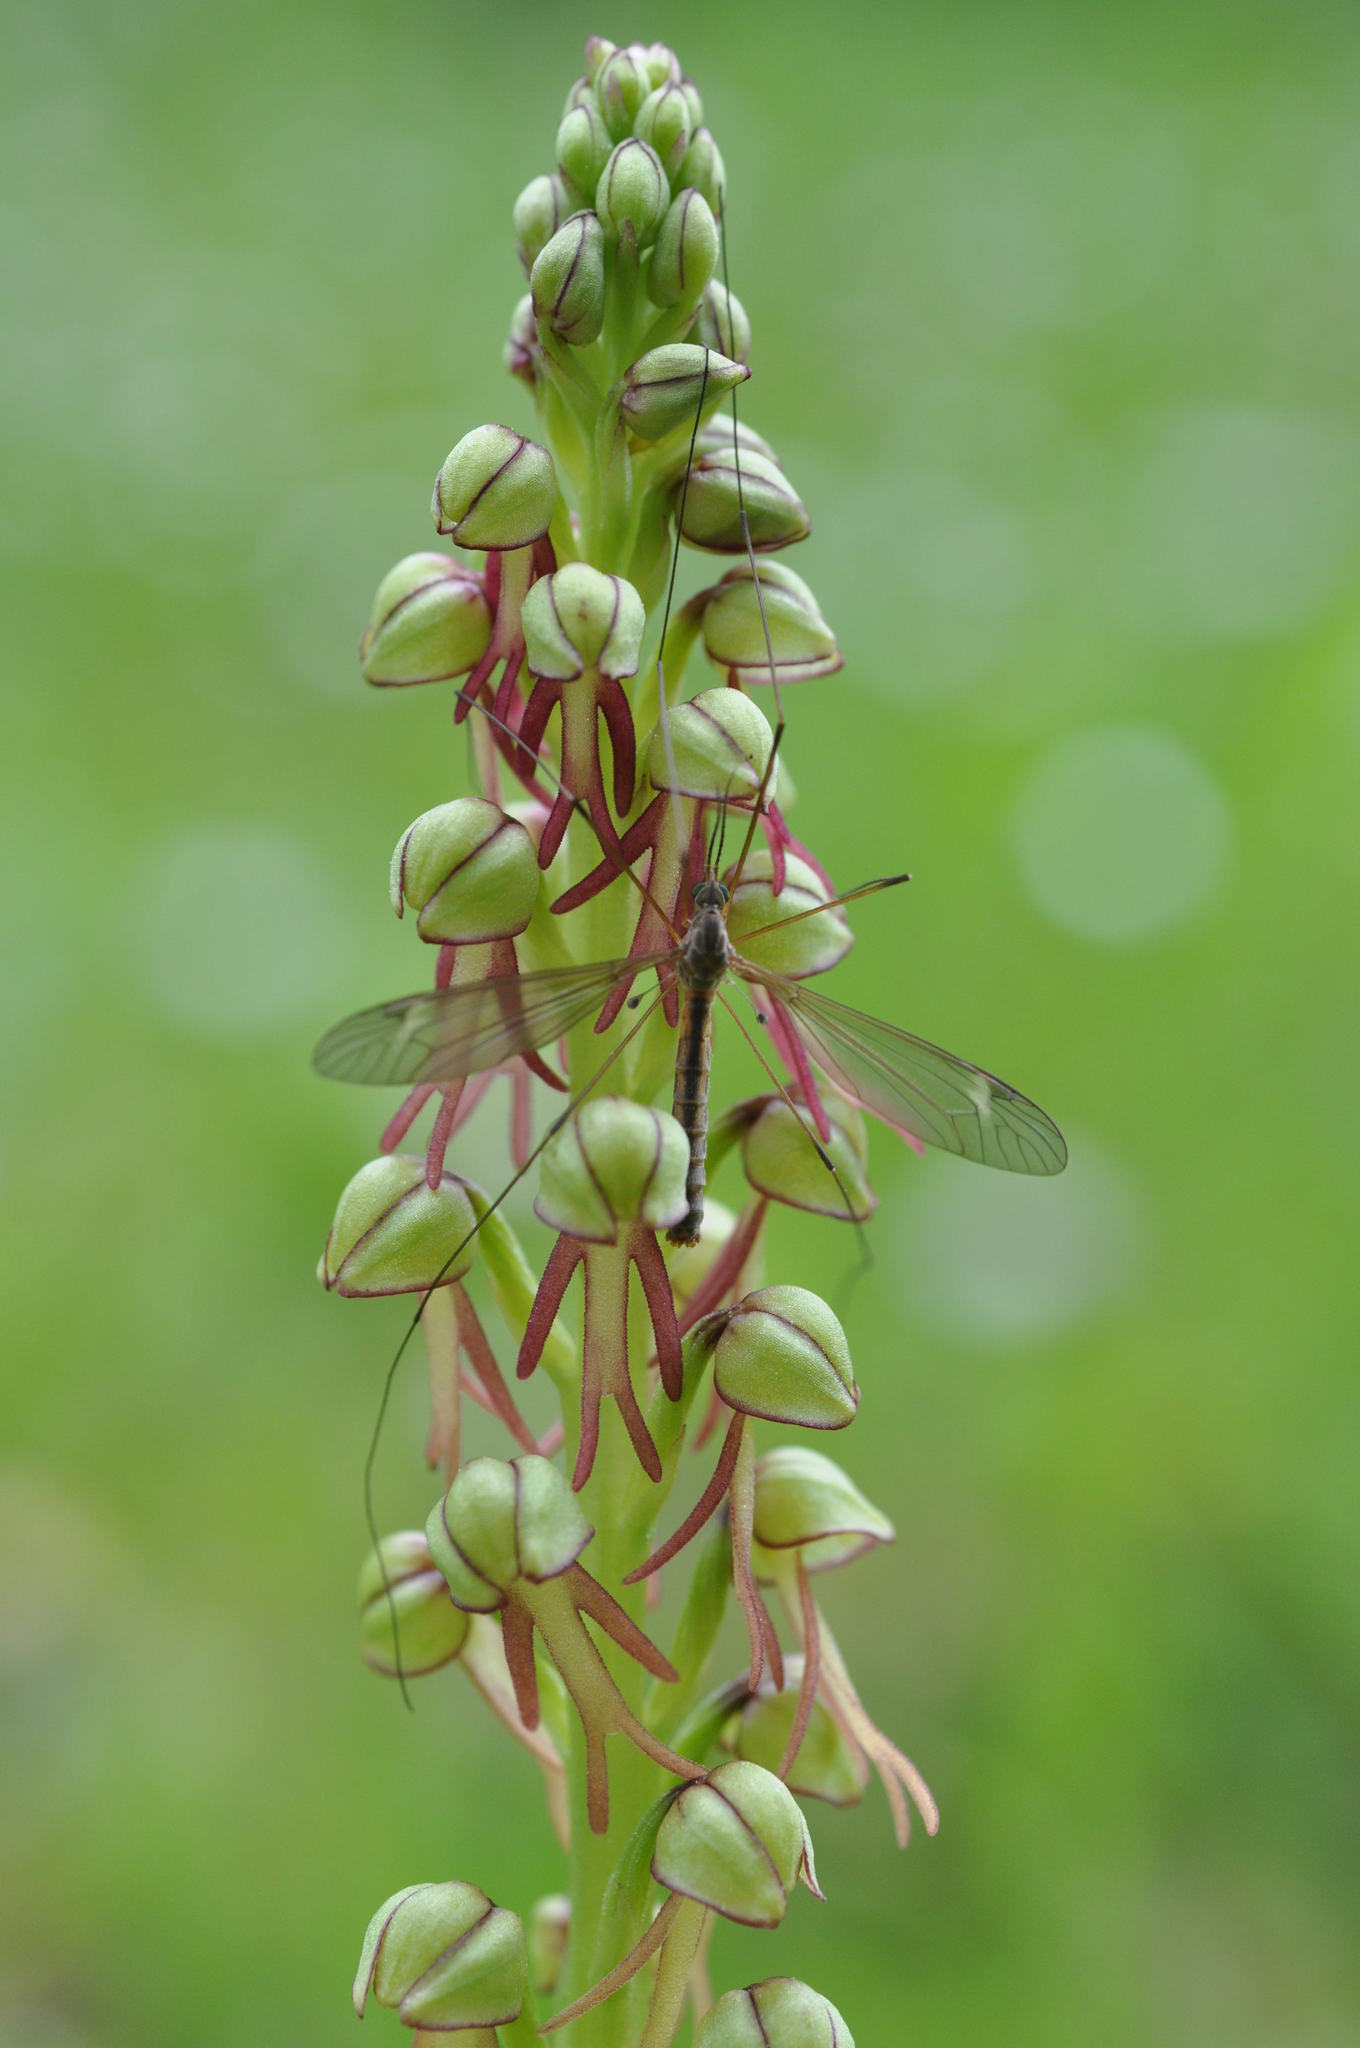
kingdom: Plantae
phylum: Tracheophyta
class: Liliopsida
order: Asparagales
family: Orchidaceae
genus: Orchis
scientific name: Orchis anthropophora
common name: Man orchid
